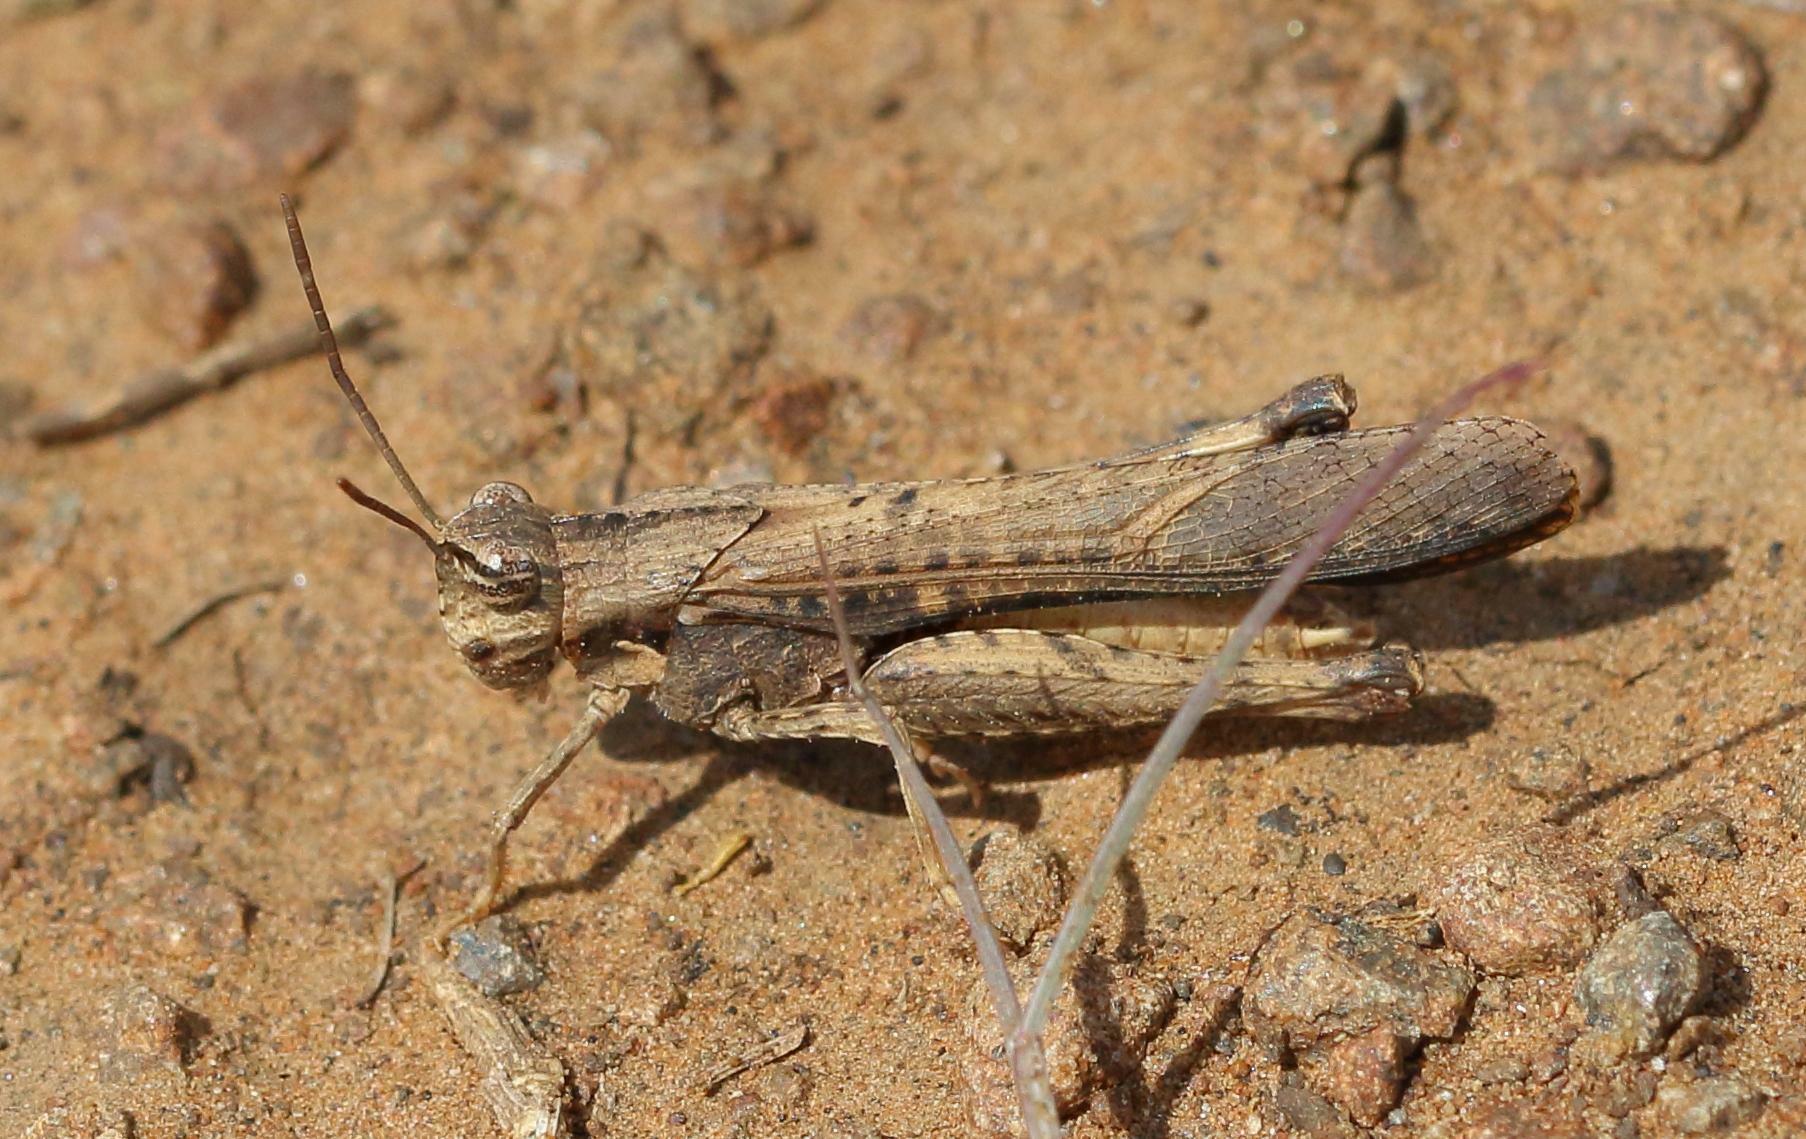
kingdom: Animalia
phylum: Arthropoda
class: Insecta
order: Orthoptera
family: Acrididae
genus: Morphacris
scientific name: Morphacris fasciata
